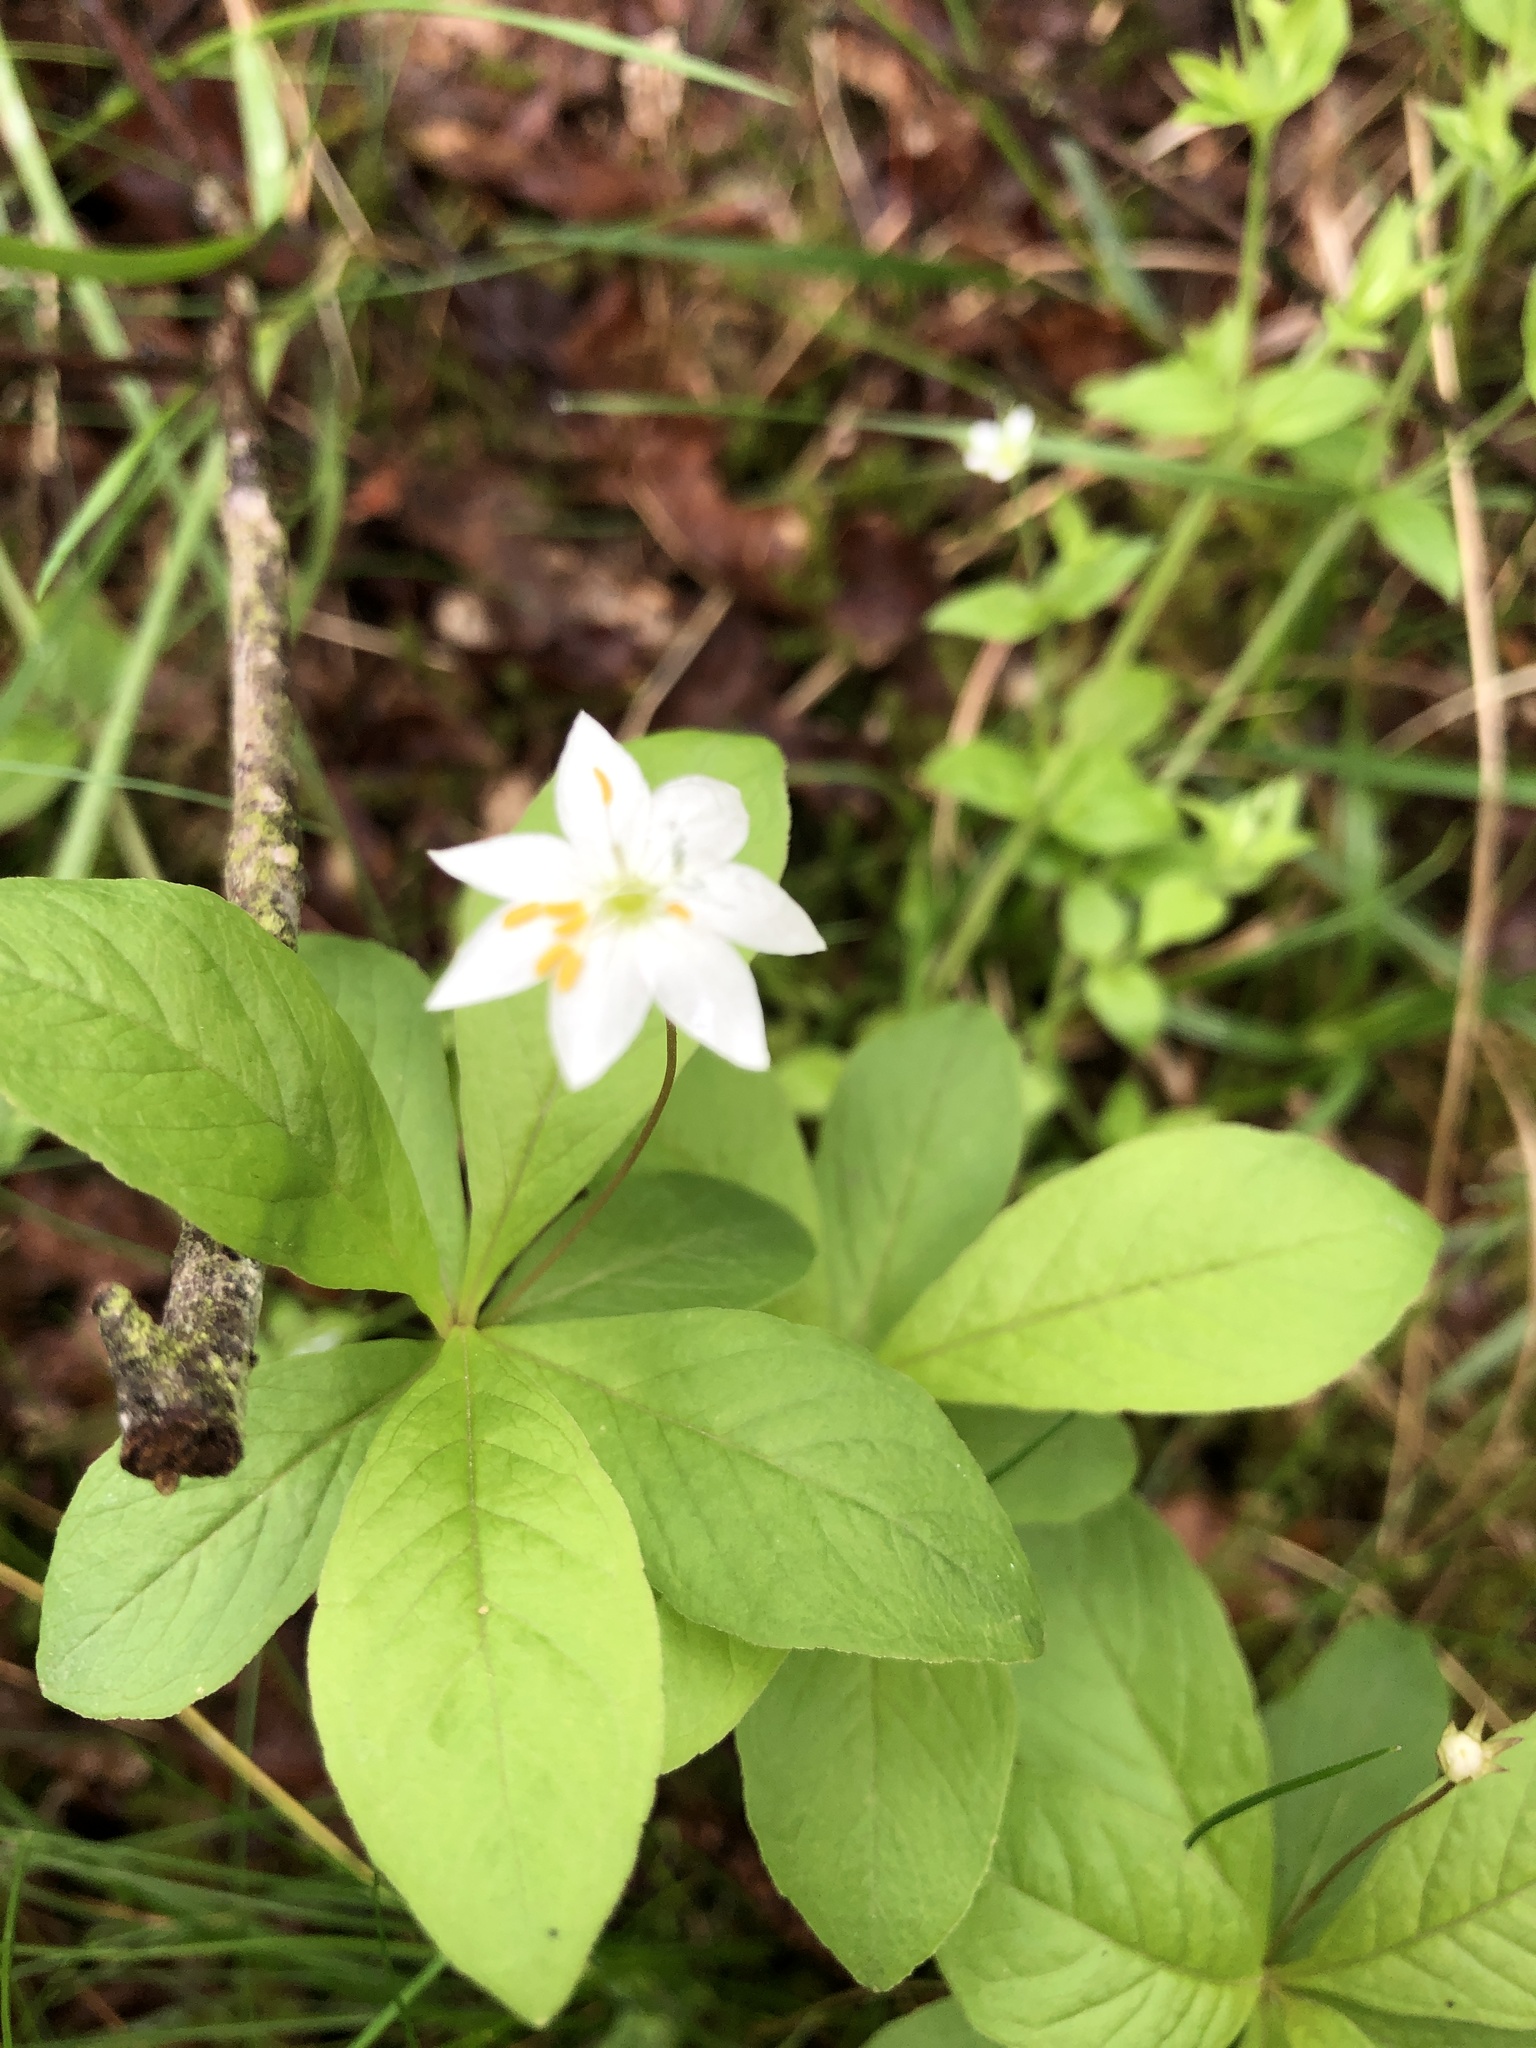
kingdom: Plantae
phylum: Tracheophyta
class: Magnoliopsida
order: Ericales
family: Primulaceae
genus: Lysimachia
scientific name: Lysimachia europaea
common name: Arctic starflower
